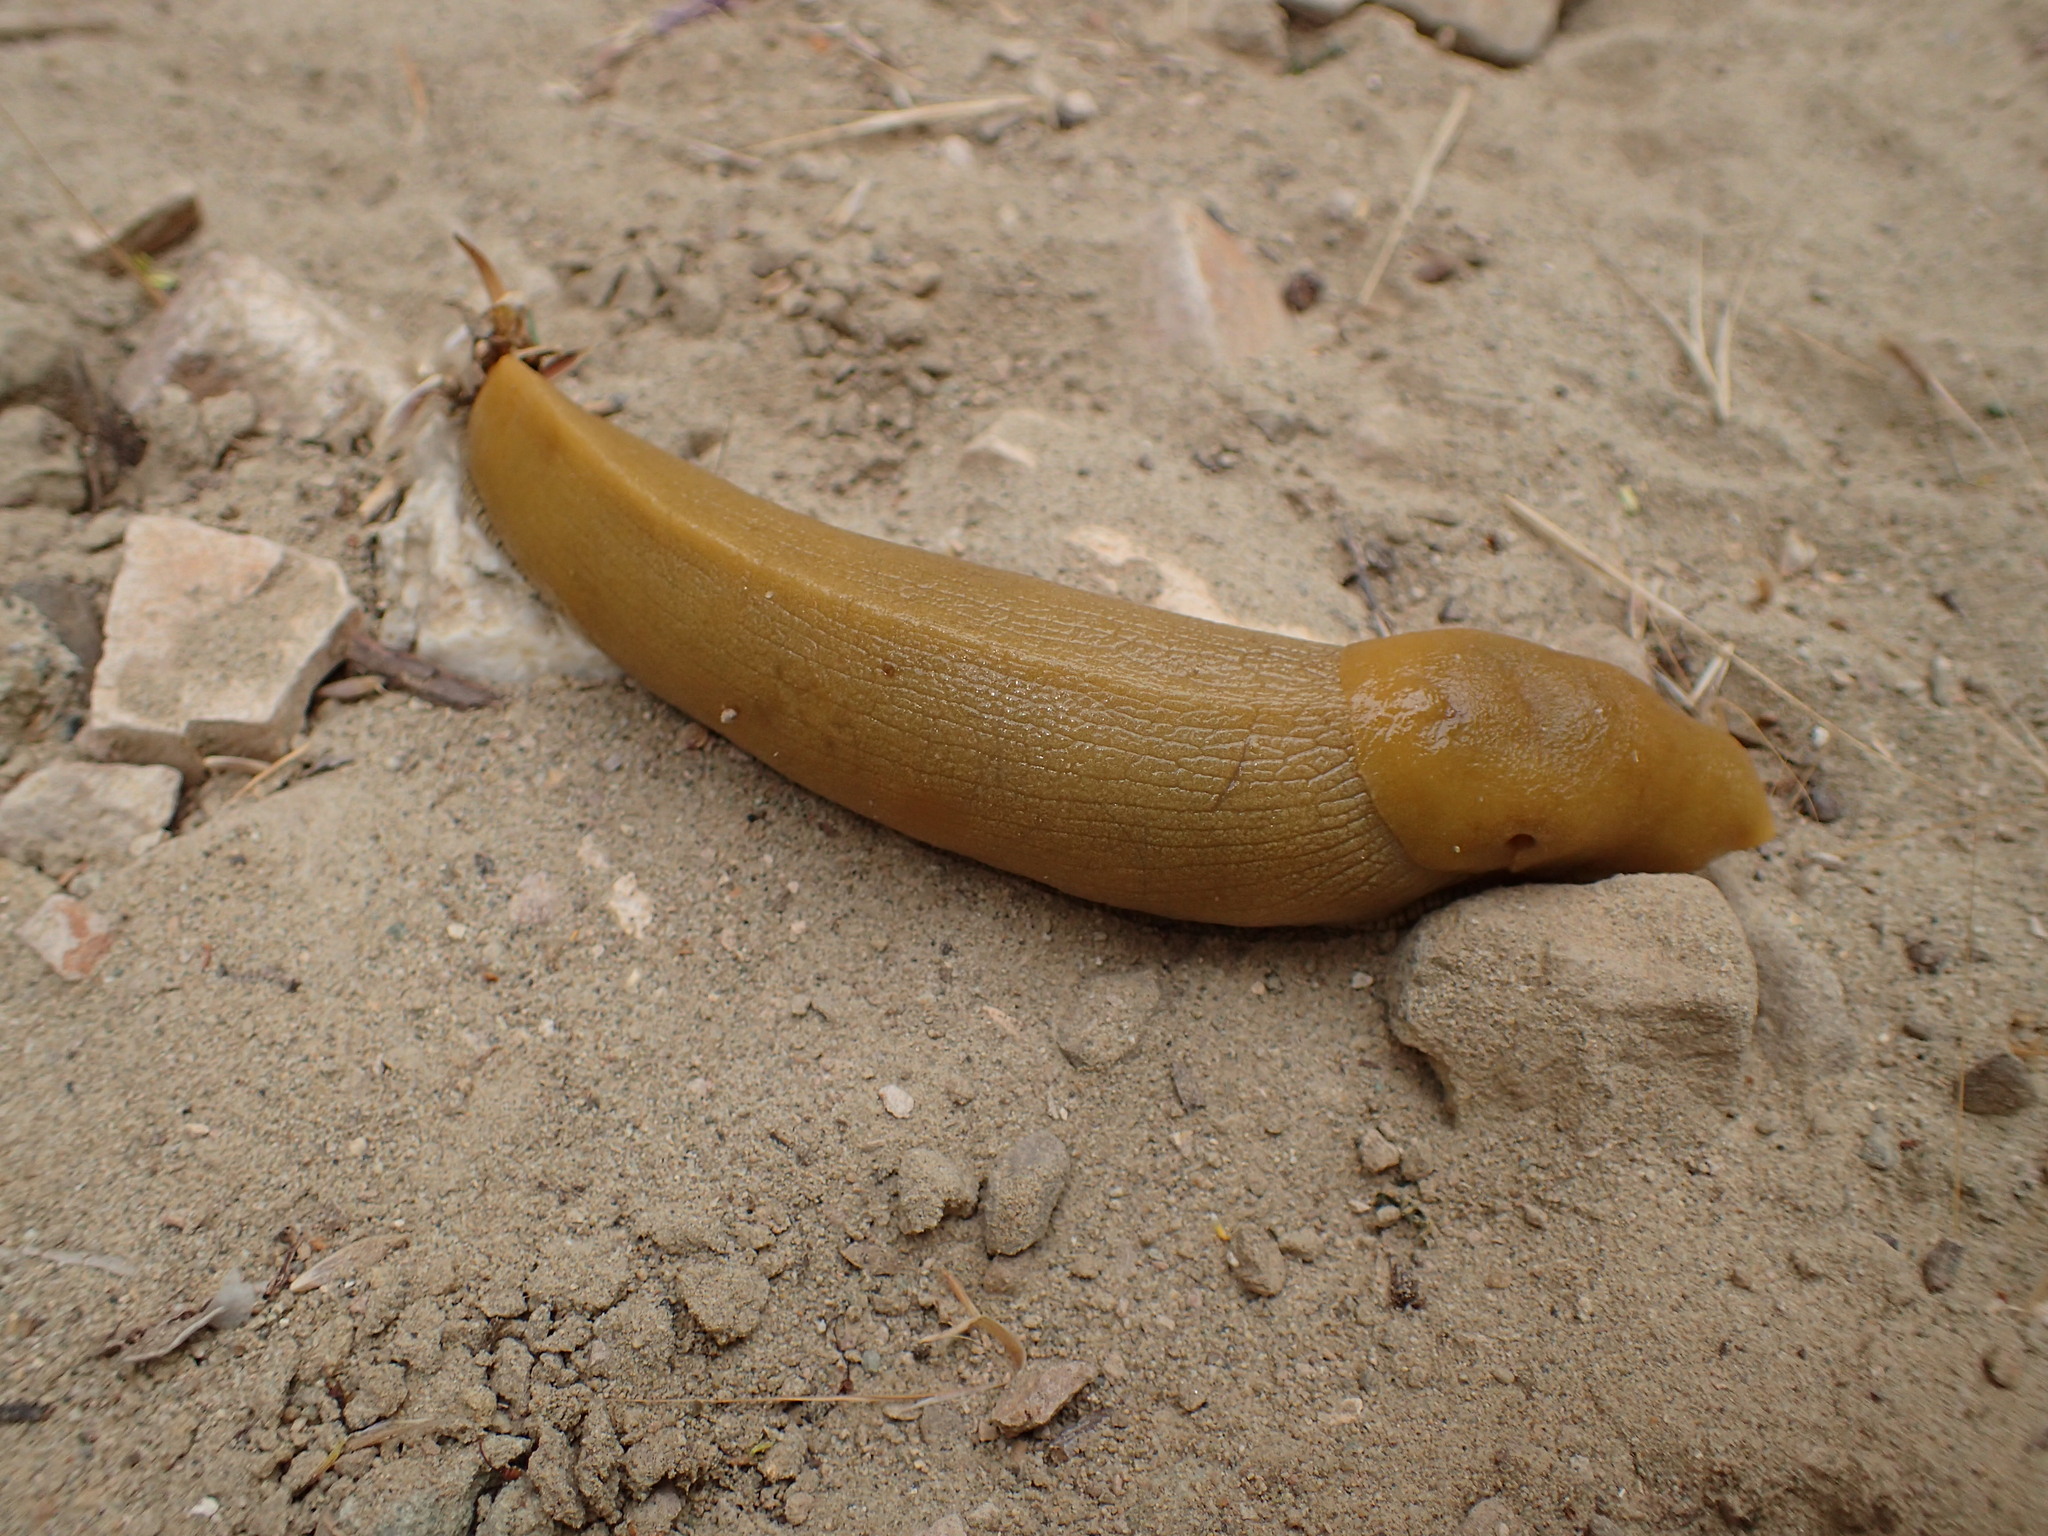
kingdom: Animalia
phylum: Mollusca
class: Gastropoda
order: Stylommatophora
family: Ariolimacidae
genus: Ariolimax
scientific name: Ariolimax stramineus
